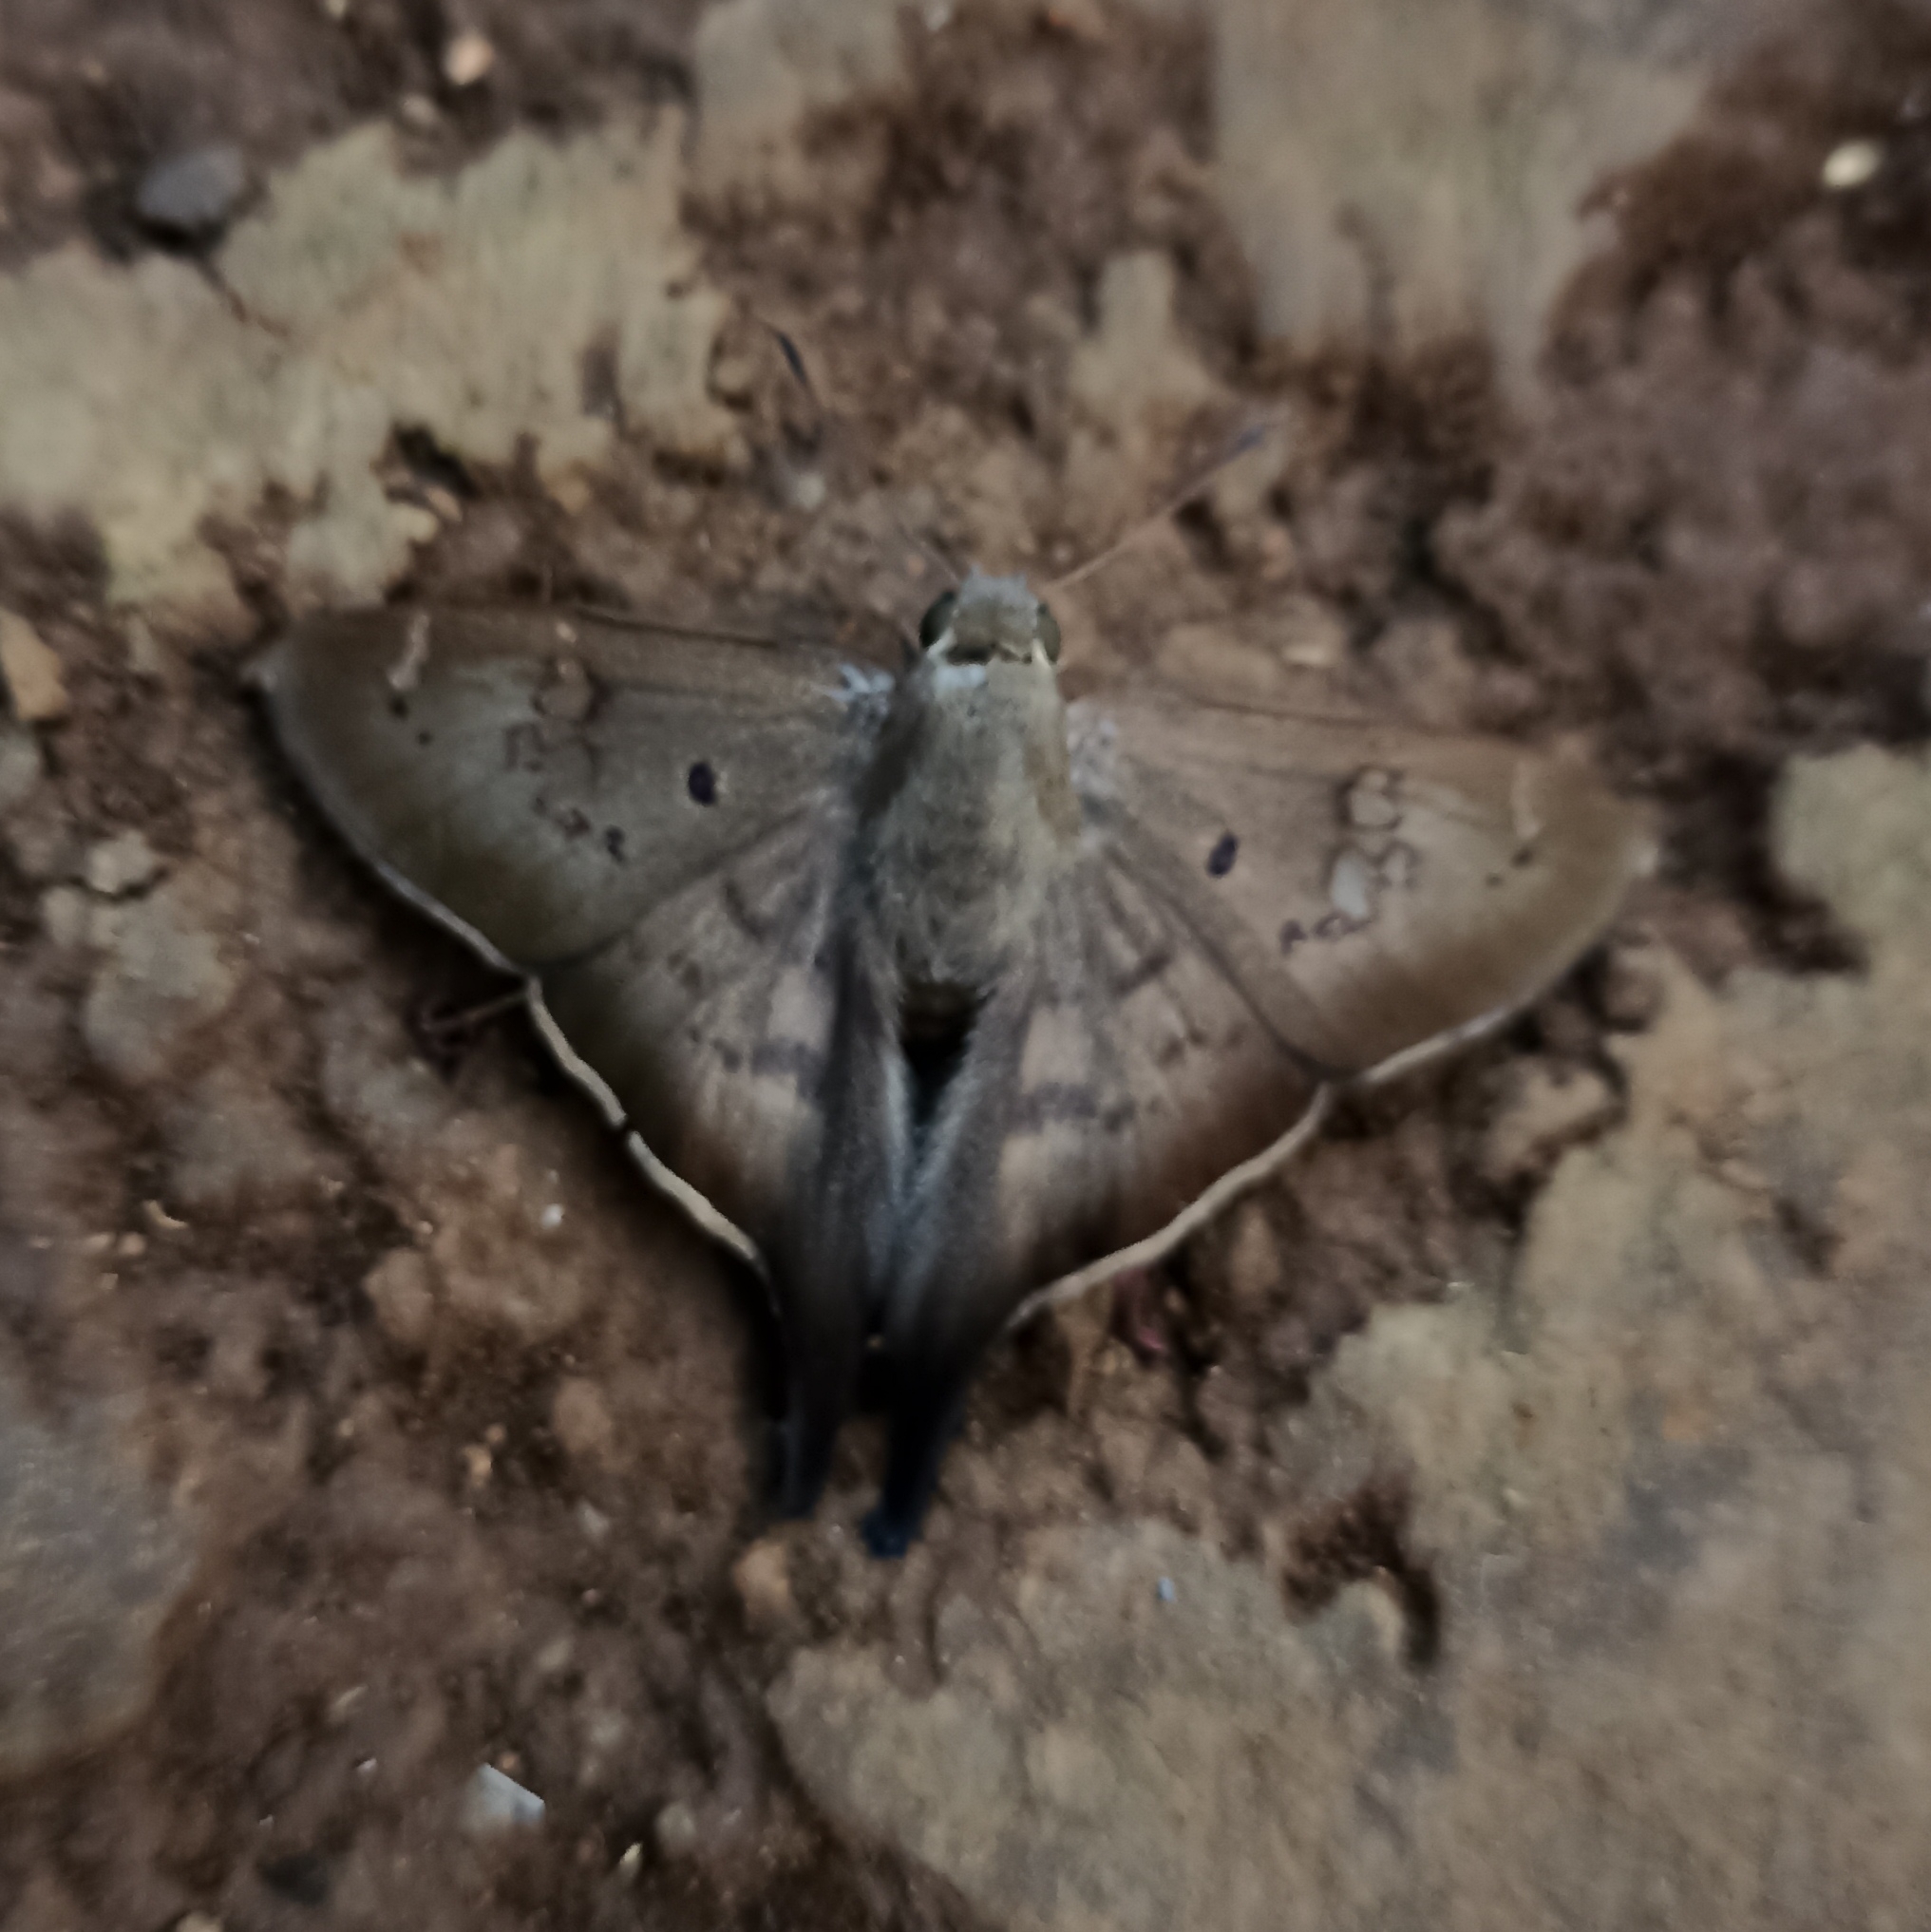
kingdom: Animalia
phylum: Arthropoda
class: Insecta
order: Lepidoptera
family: Hesperiidae
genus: Ectomis
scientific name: Ectomis
